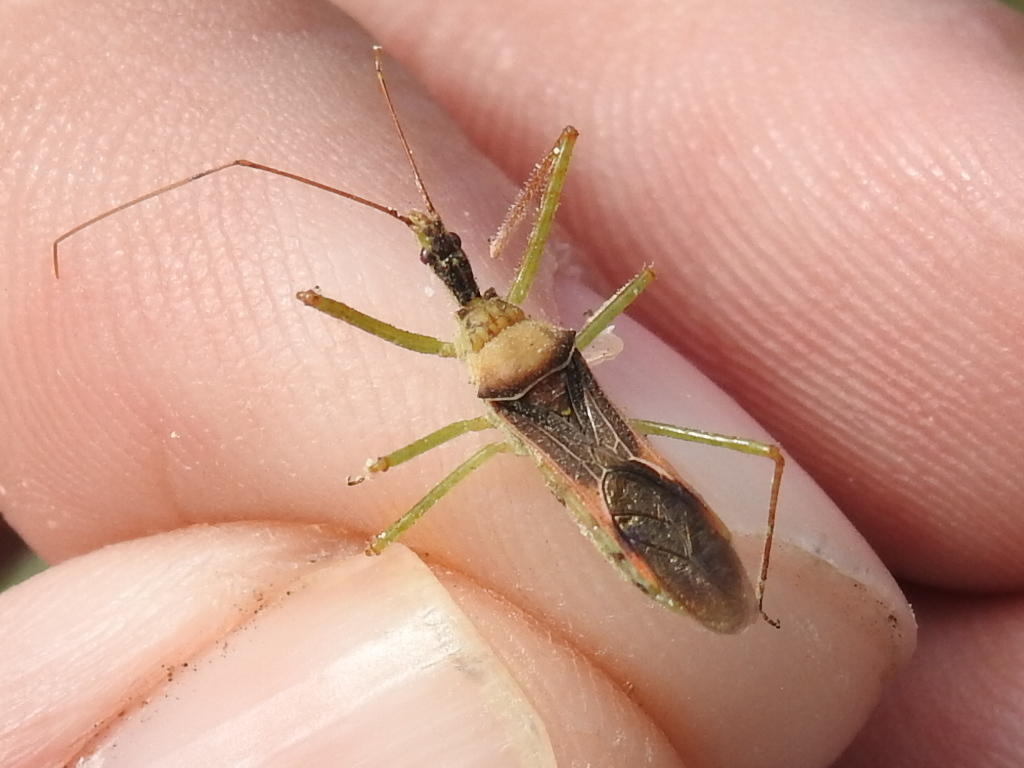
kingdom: Animalia
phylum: Arthropoda
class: Insecta
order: Hemiptera
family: Reduviidae
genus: Zelus
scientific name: Zelus renardii
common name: Assassin bug
